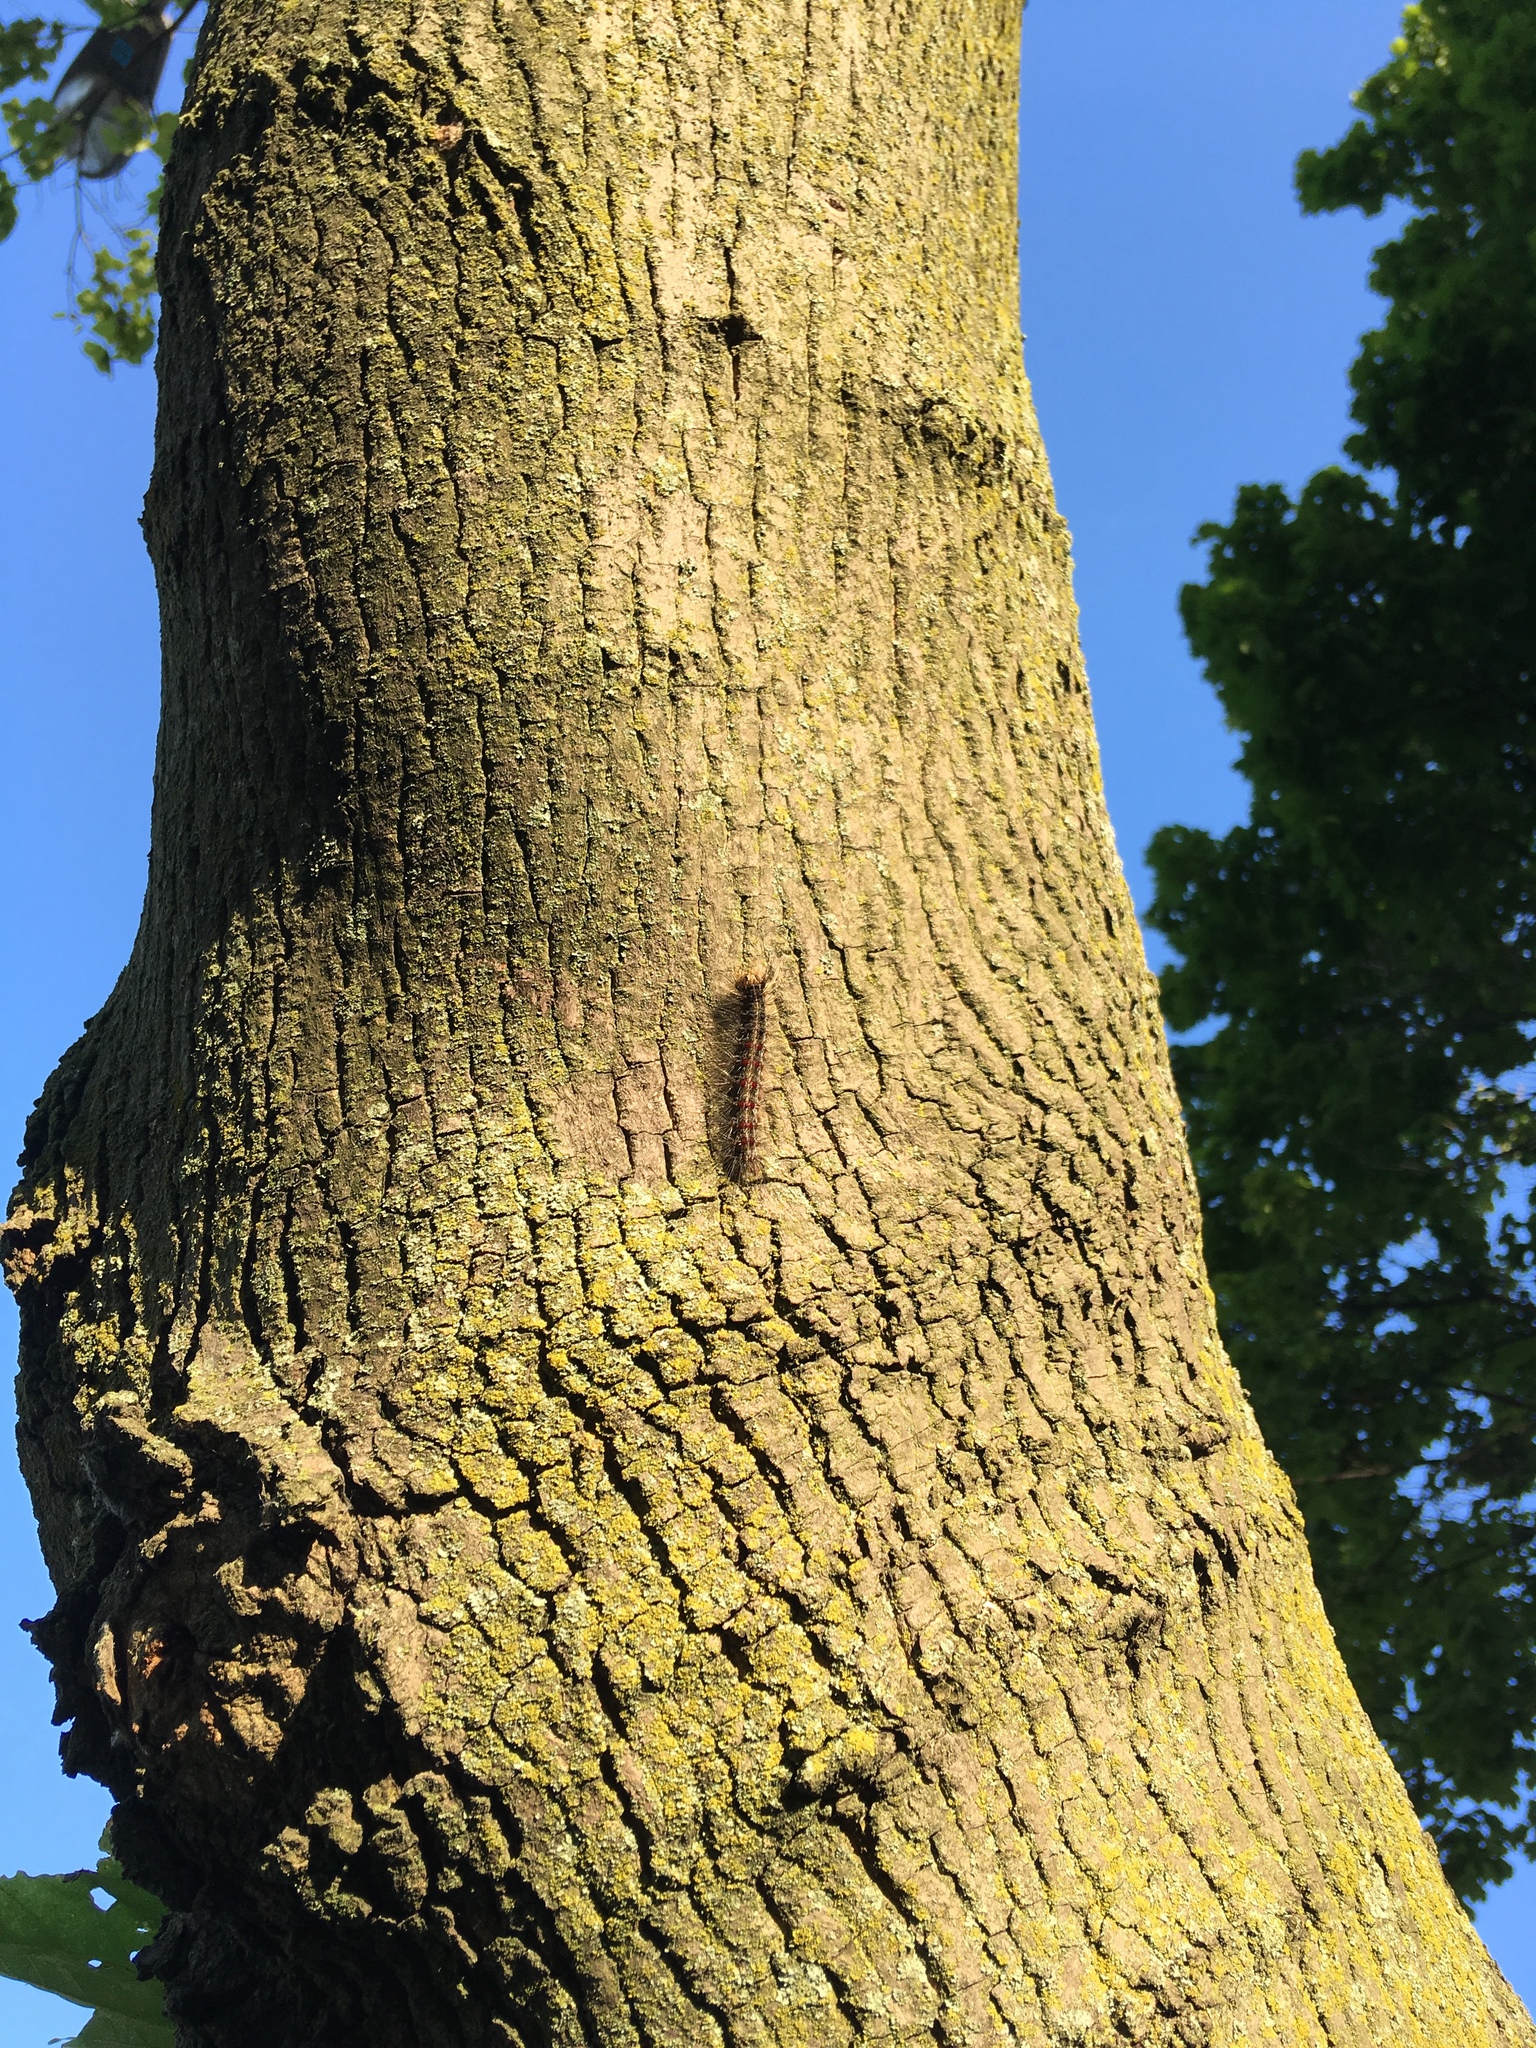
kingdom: Animalia
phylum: Arthropoda
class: Insecta
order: Lepidoptera
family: Erebidae
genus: Lymantria
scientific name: Lymantria dispar
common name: Gypsy moth
